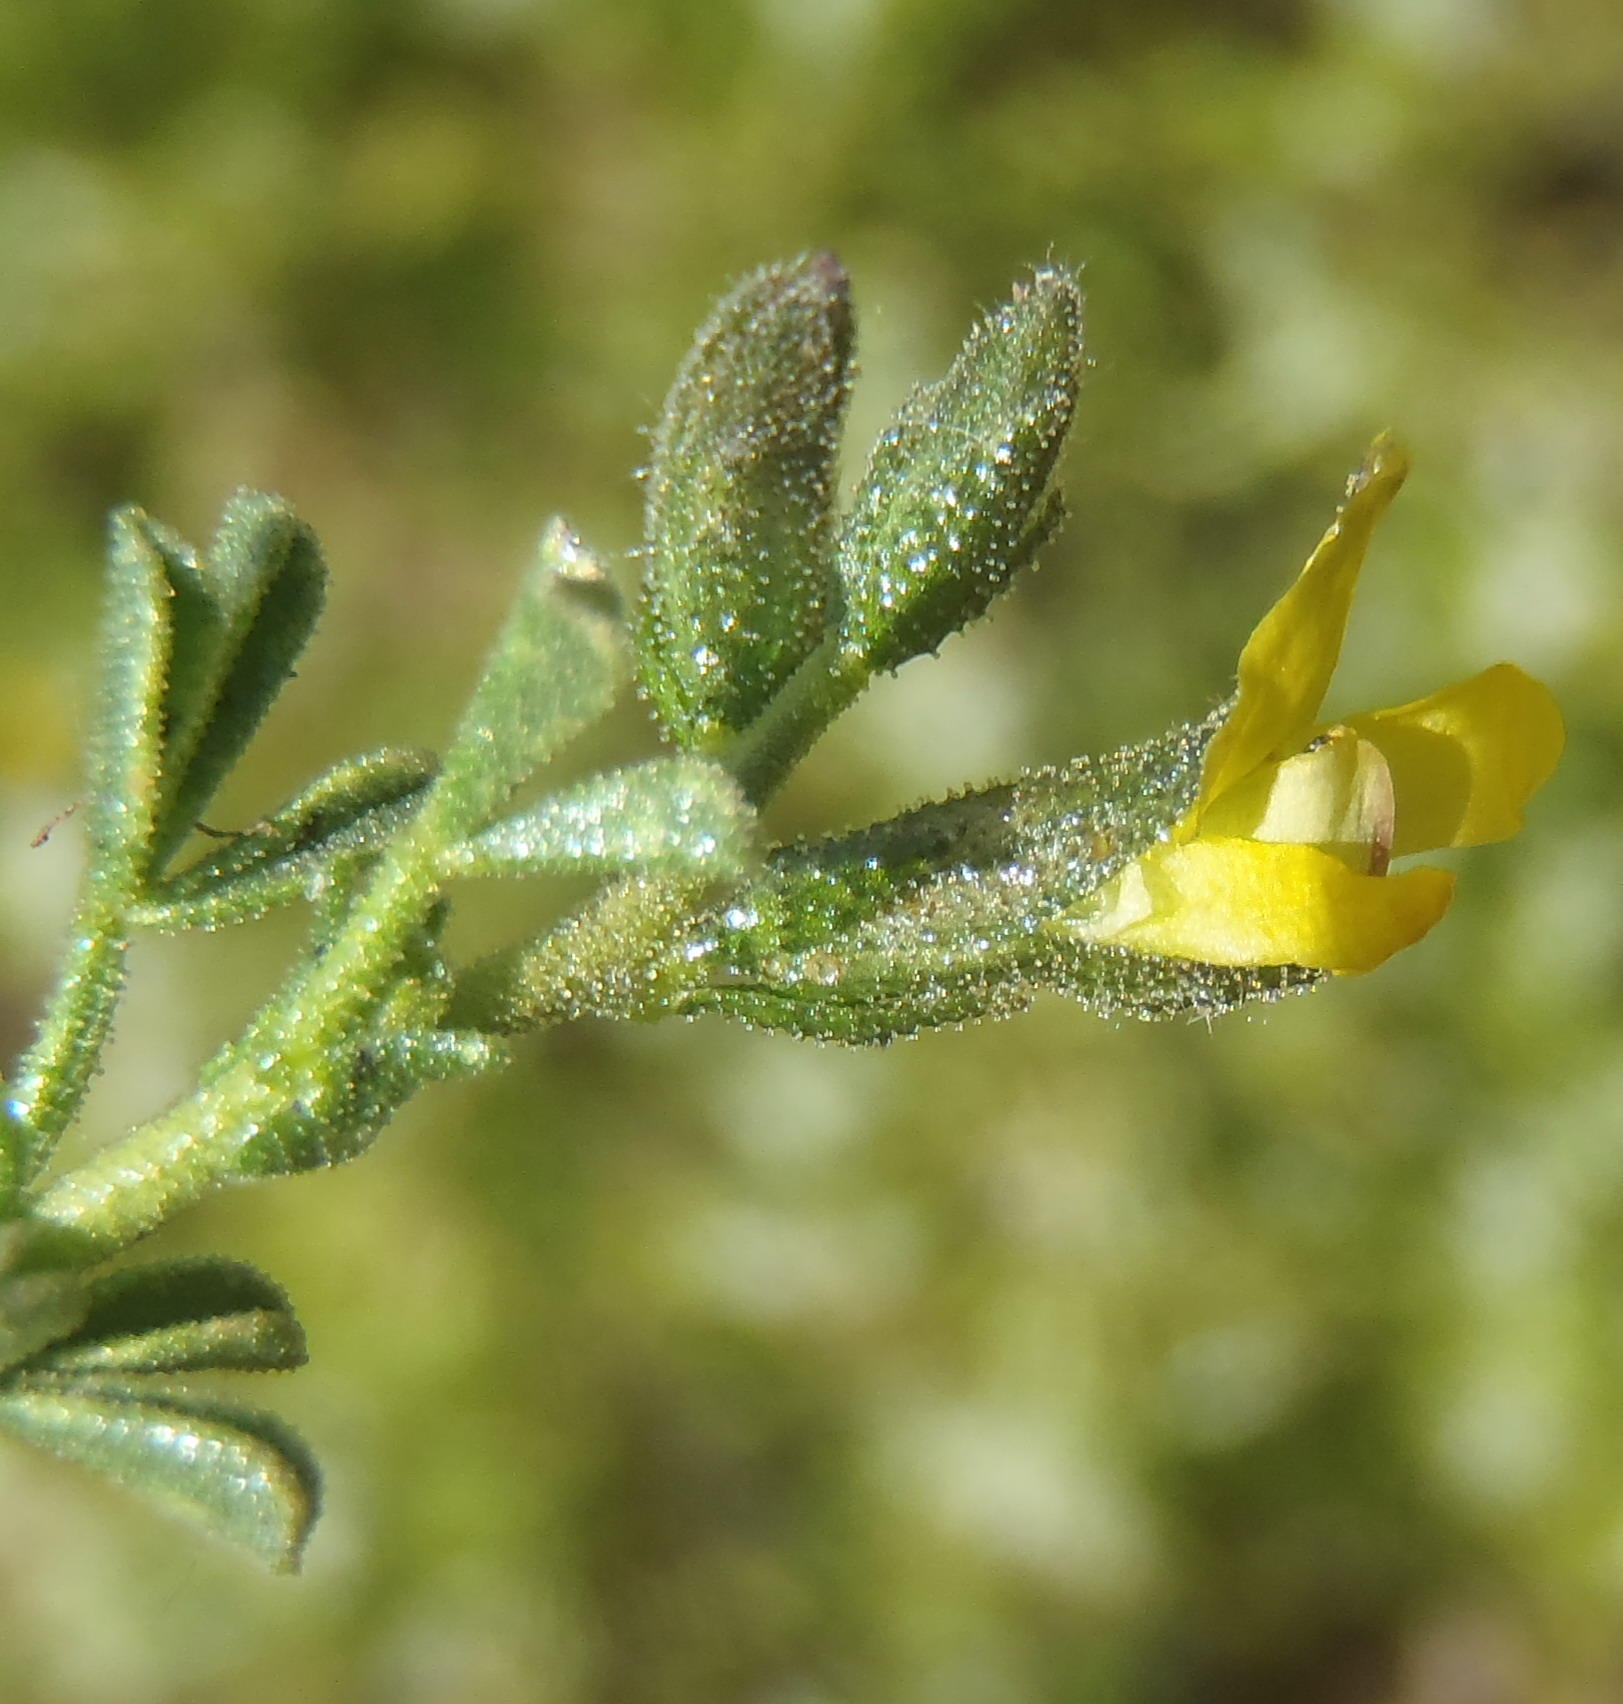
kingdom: Plantae
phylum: Tracheophyta
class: Magnoliopsida
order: Fabales
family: Fabaceae
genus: Melolobium
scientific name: Melolobium adenodes
